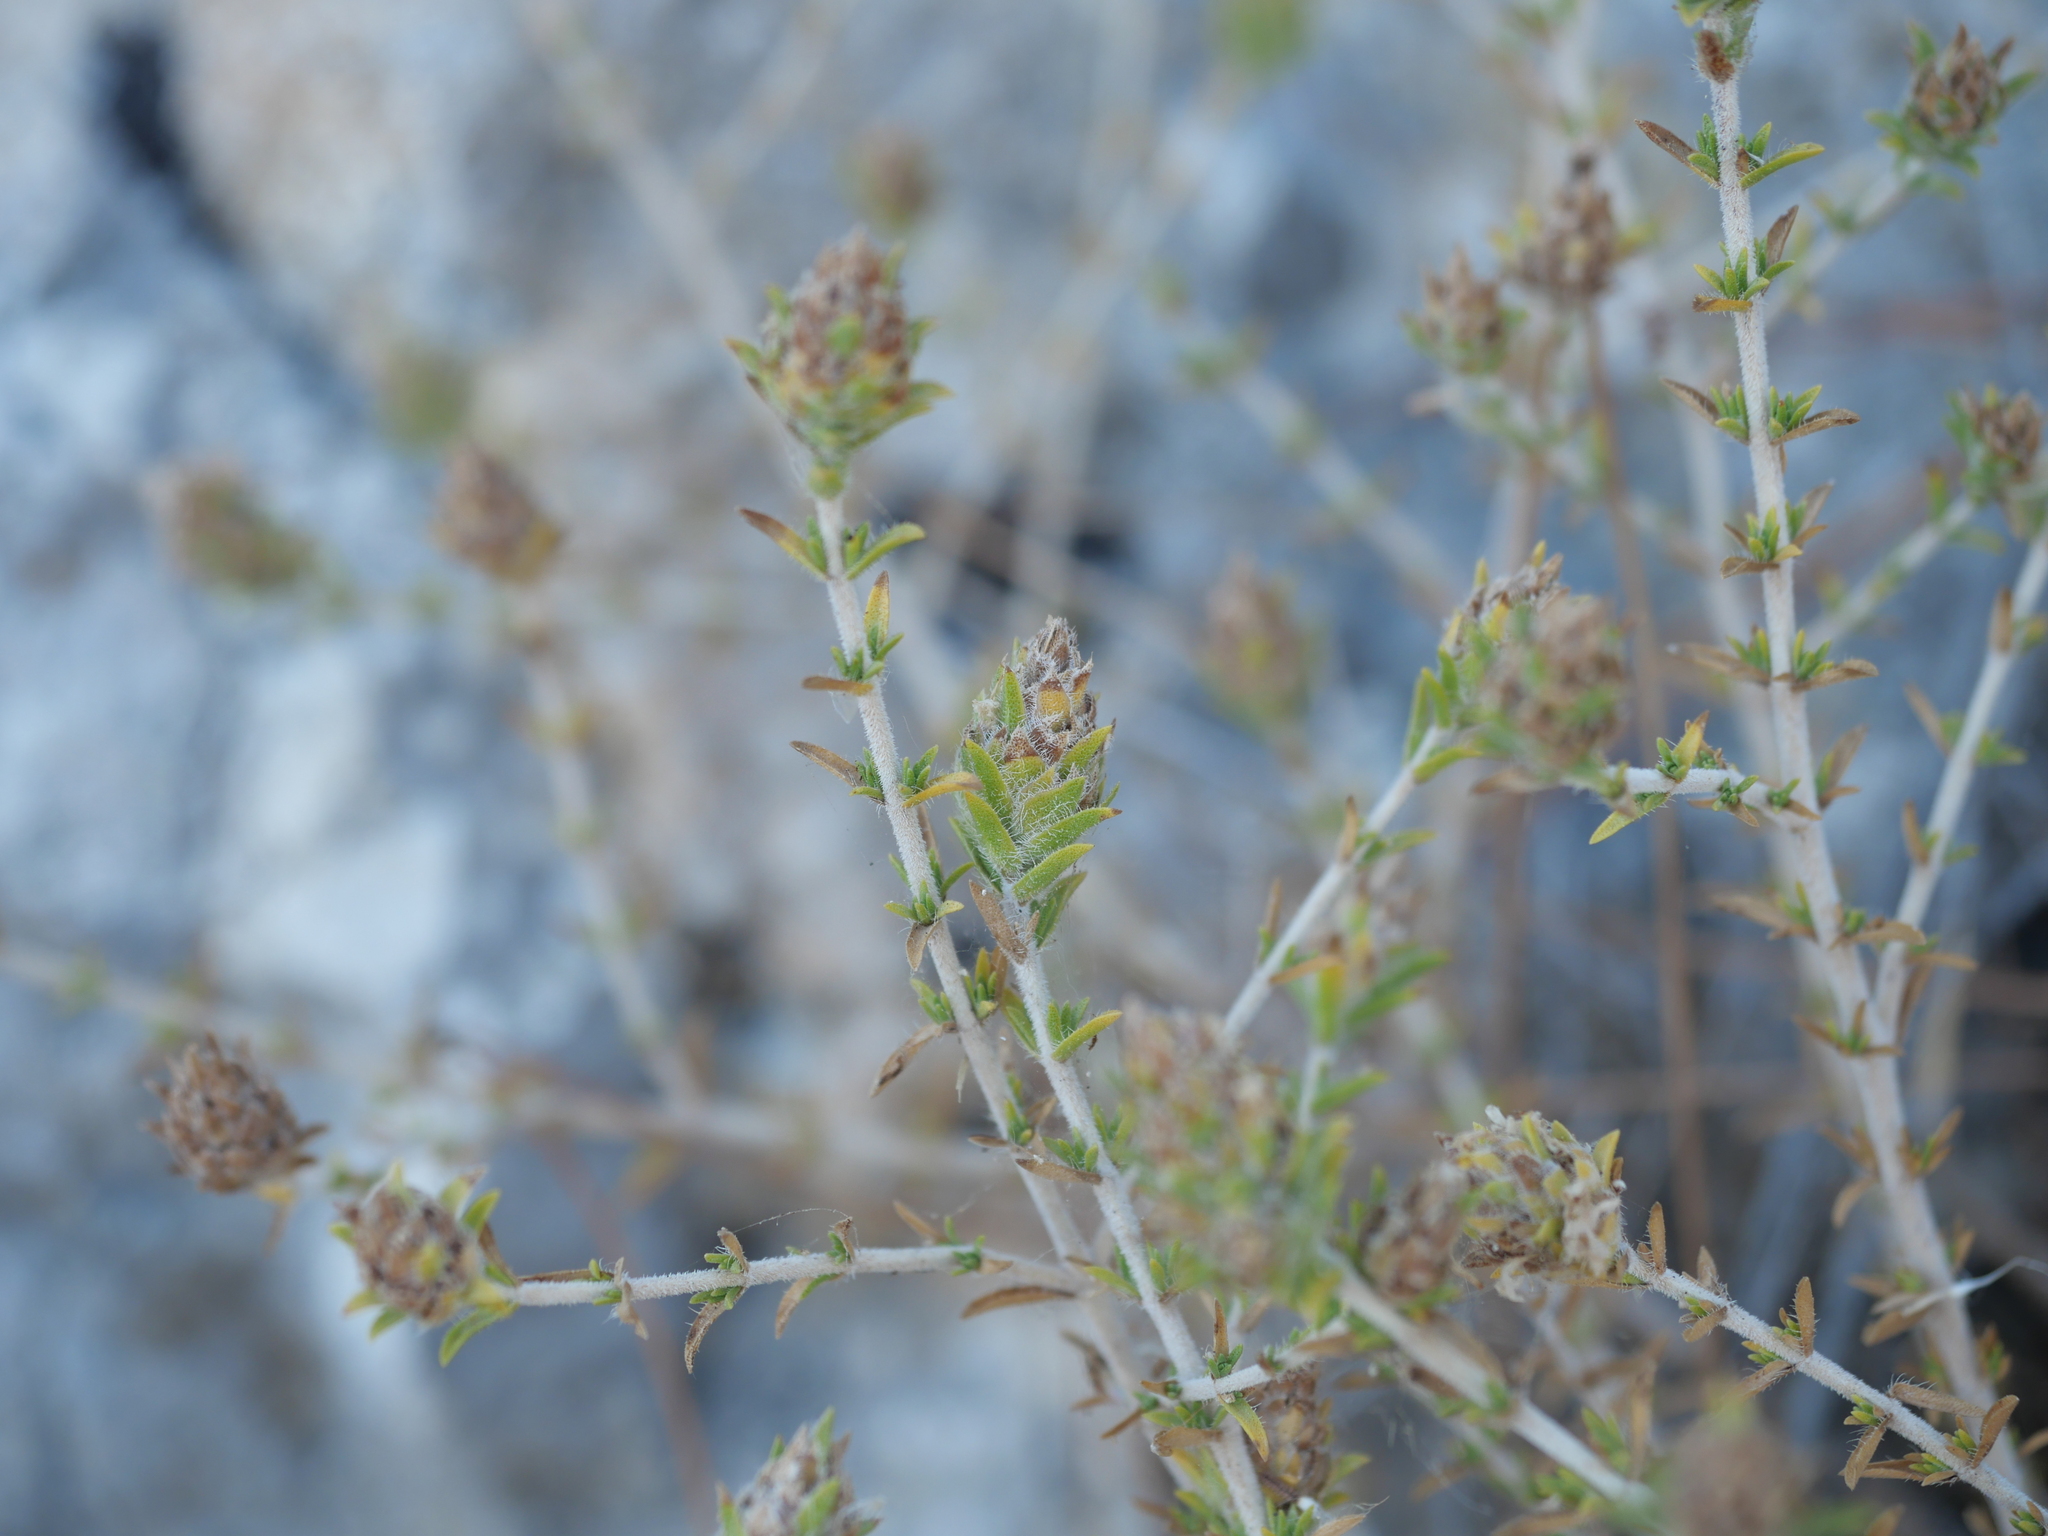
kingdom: Plantae
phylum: Tracheophyta
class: Magnoliopsida
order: Lamiales
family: Lamiaceae
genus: Thymbra
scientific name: Thymbra capitata
